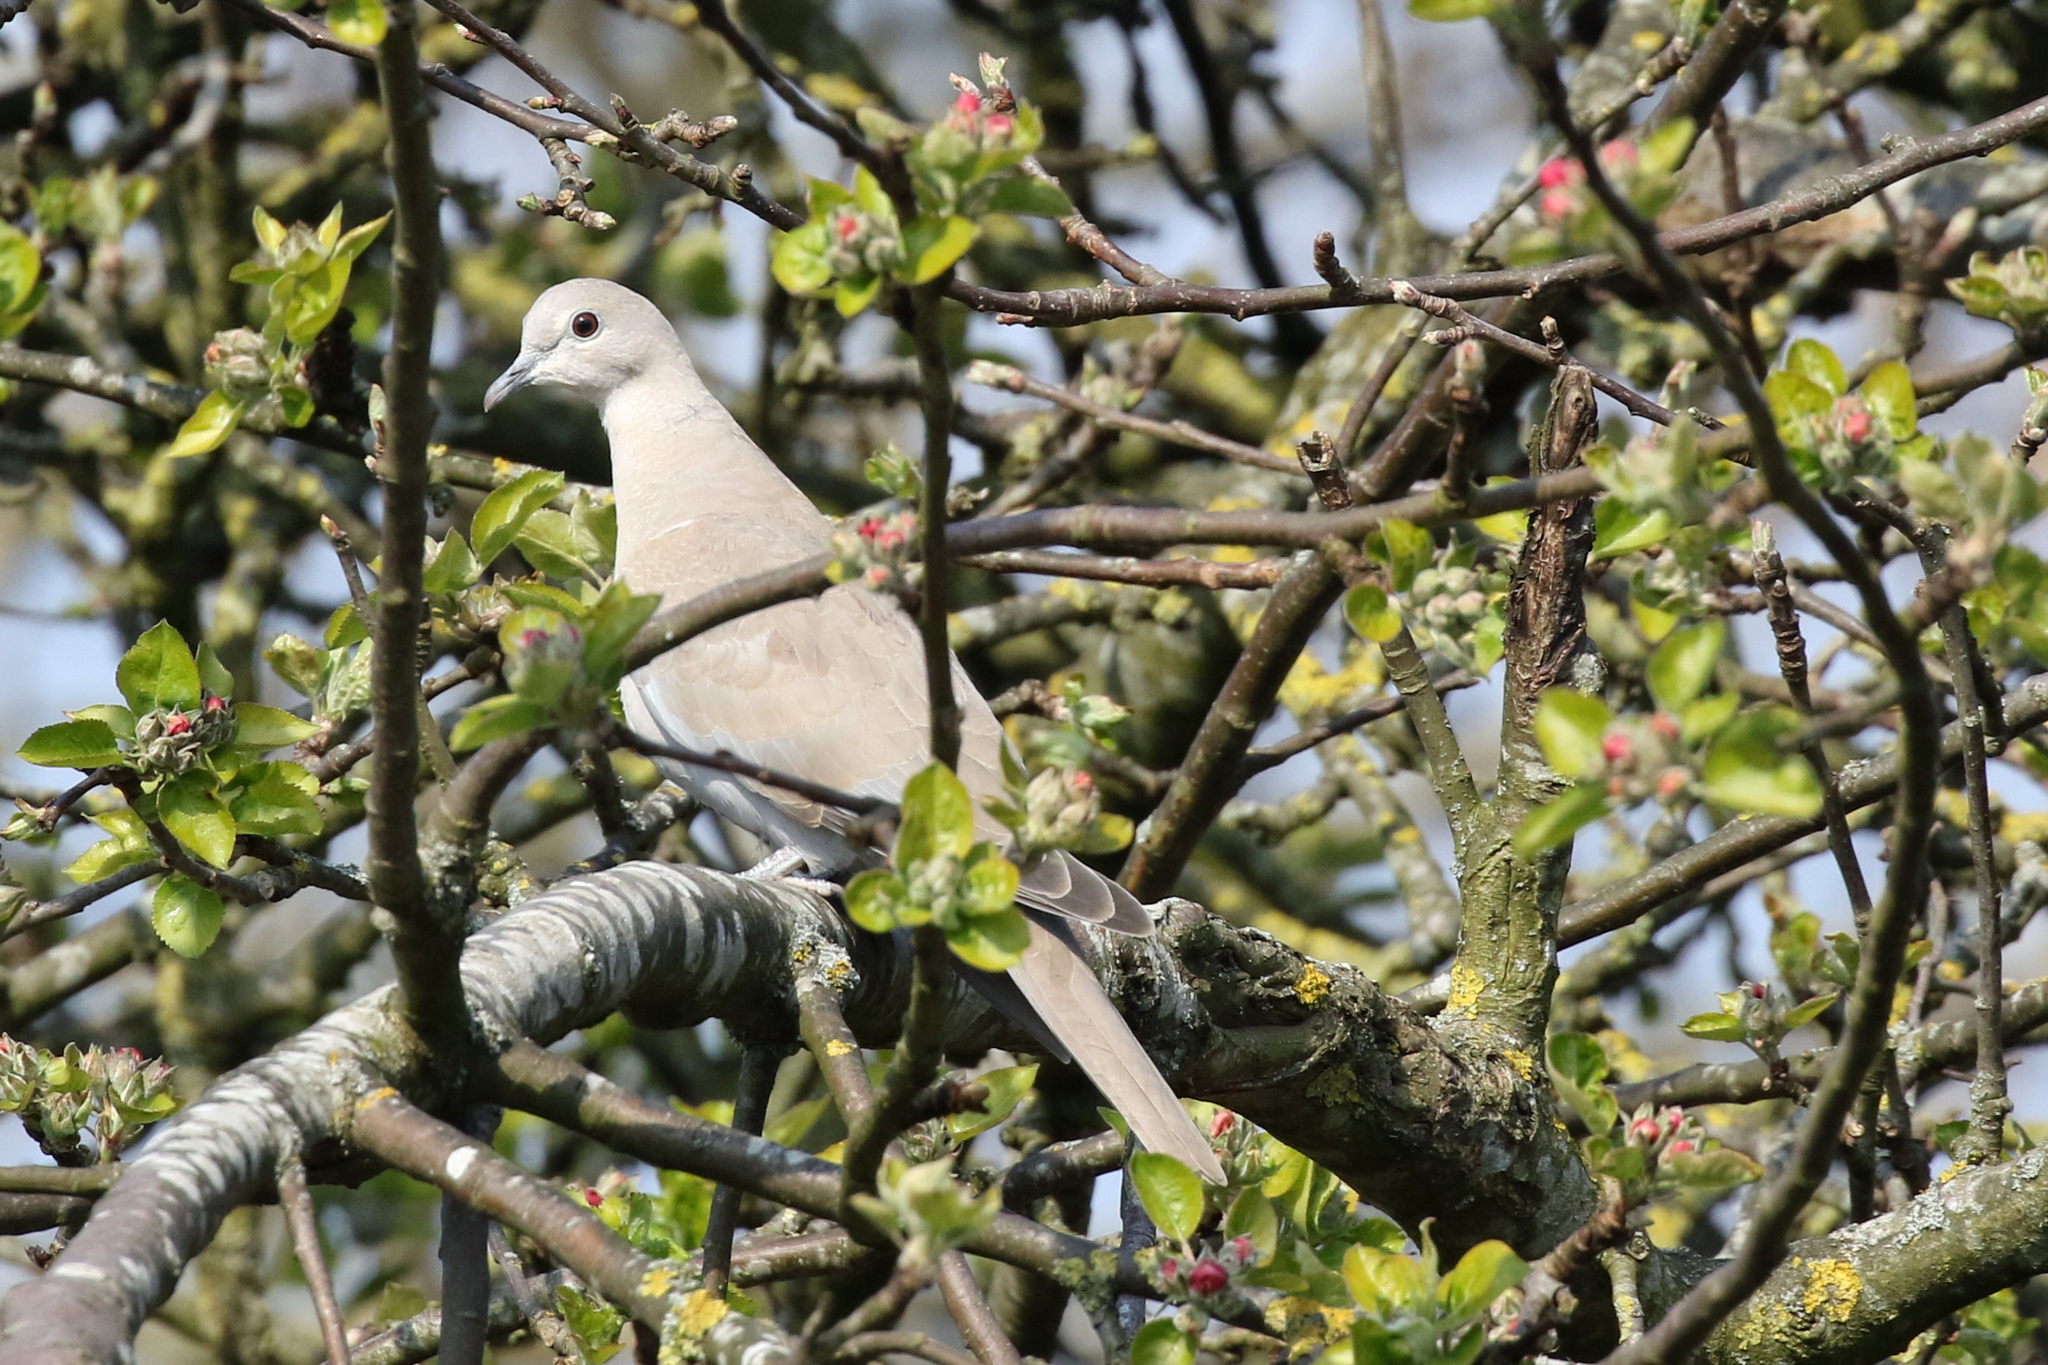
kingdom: Animalia
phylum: Chordata
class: Aves
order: Columbiformes
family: Columbidae
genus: Streptopelia
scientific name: Streptopelia decaocto
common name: Eurasian collared dove
